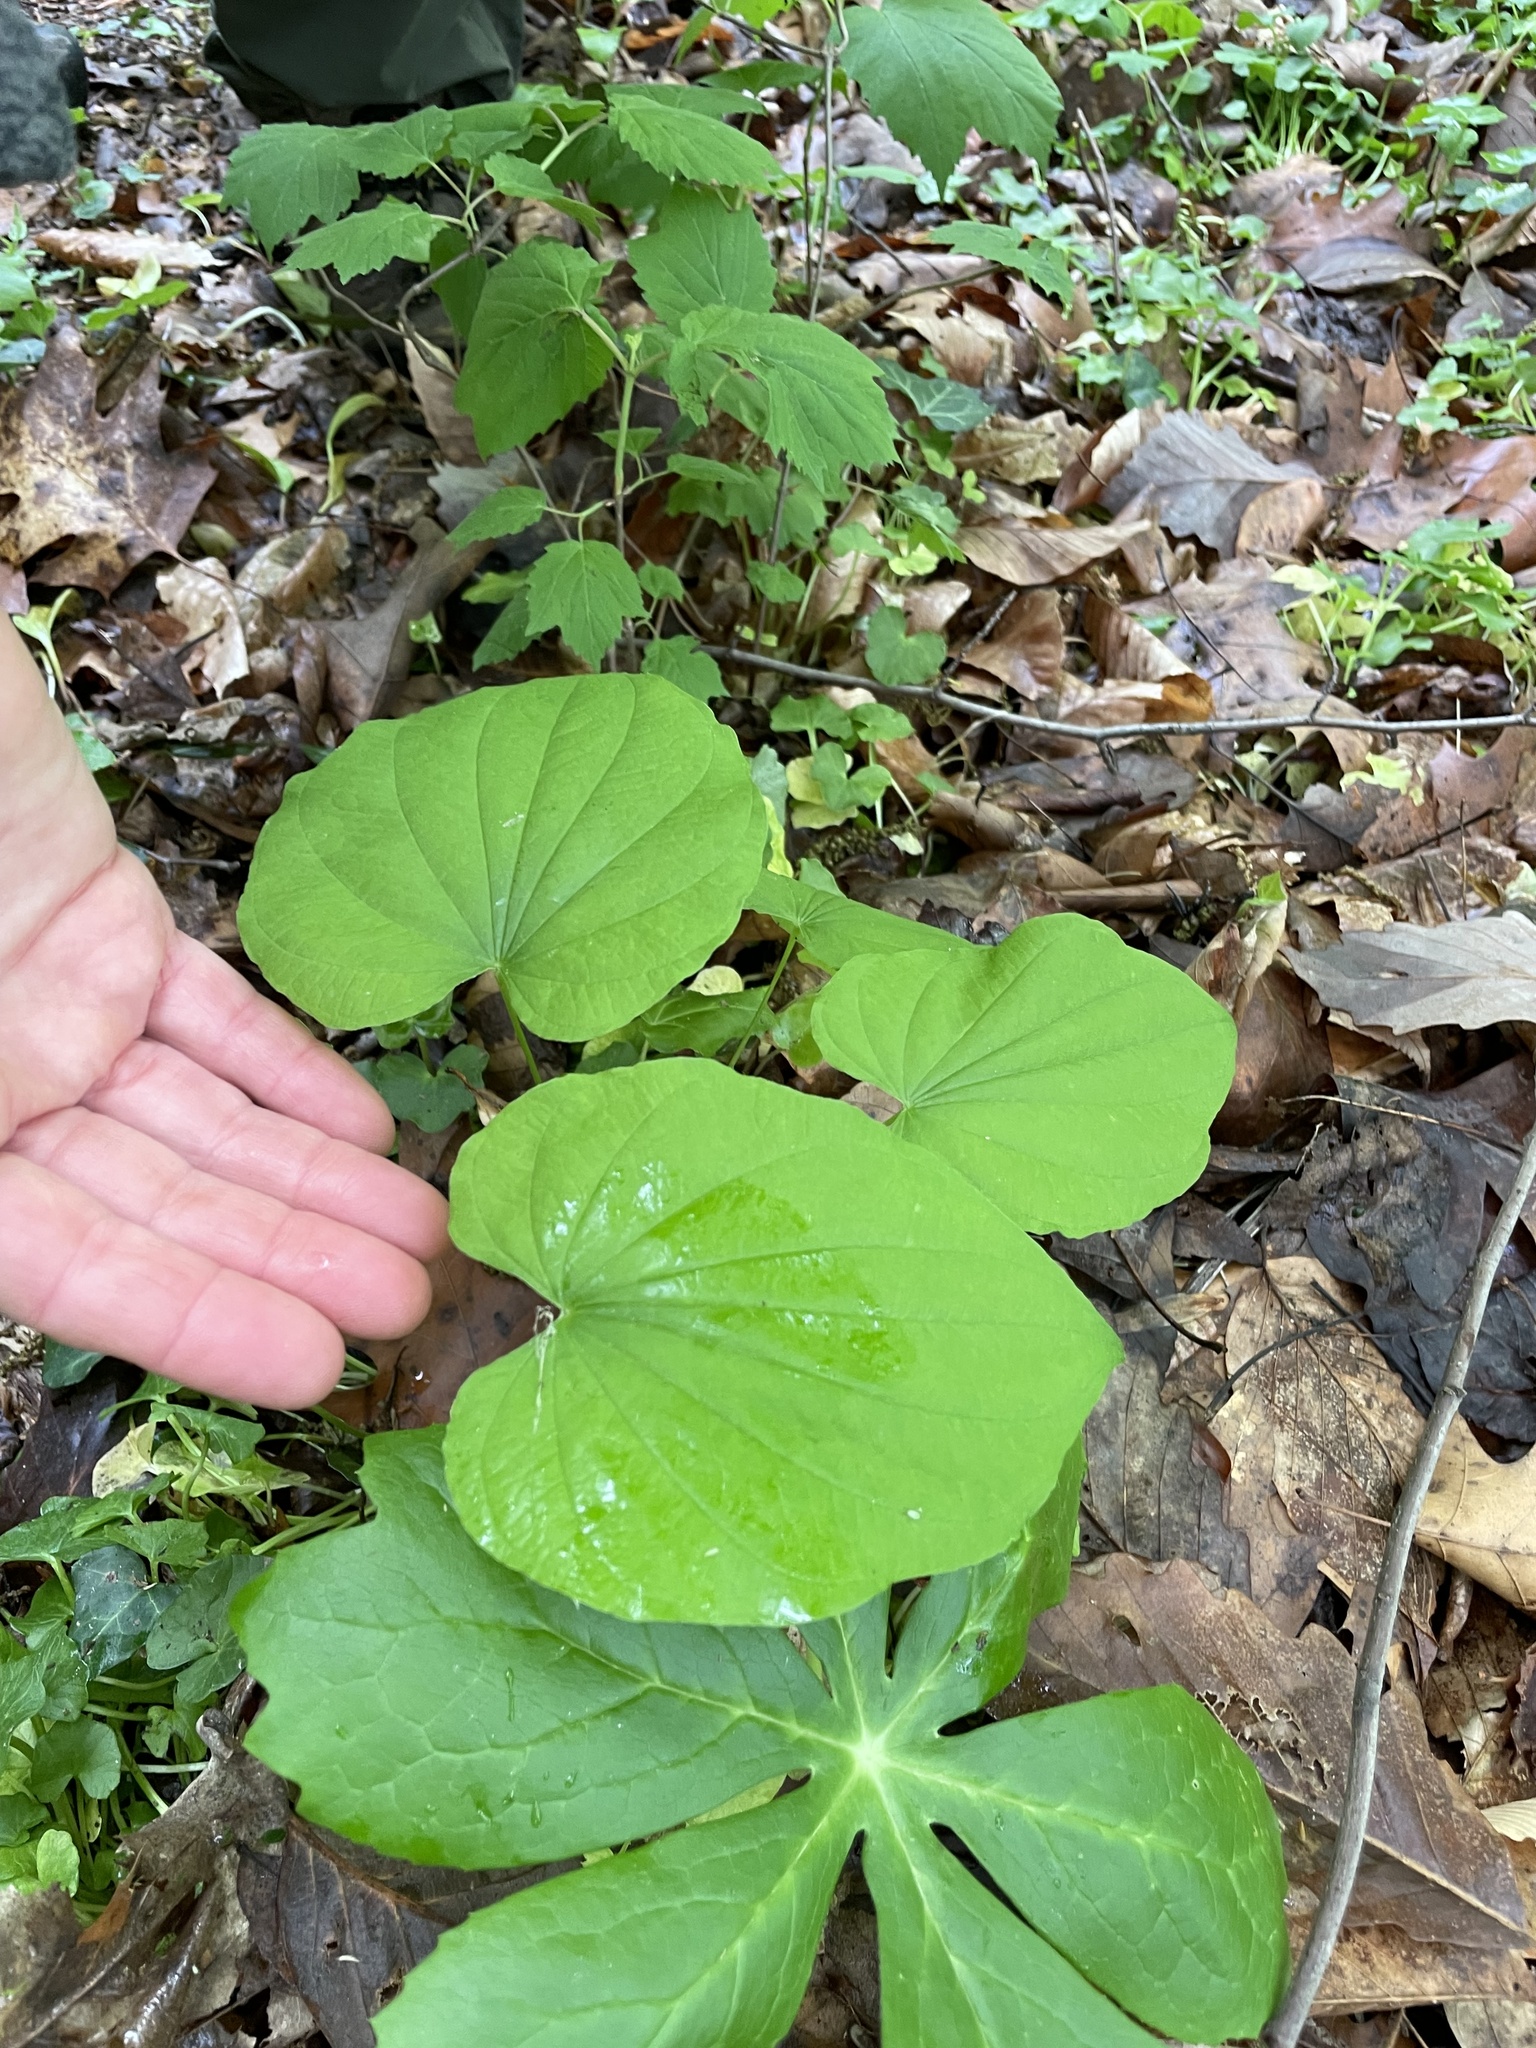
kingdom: Plantae
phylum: Tracheophyta
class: Liliopsida
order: Dioscoreales
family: Dioscoreaceae
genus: Dioscorea
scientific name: Dioscorea villosa
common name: Wild yam
